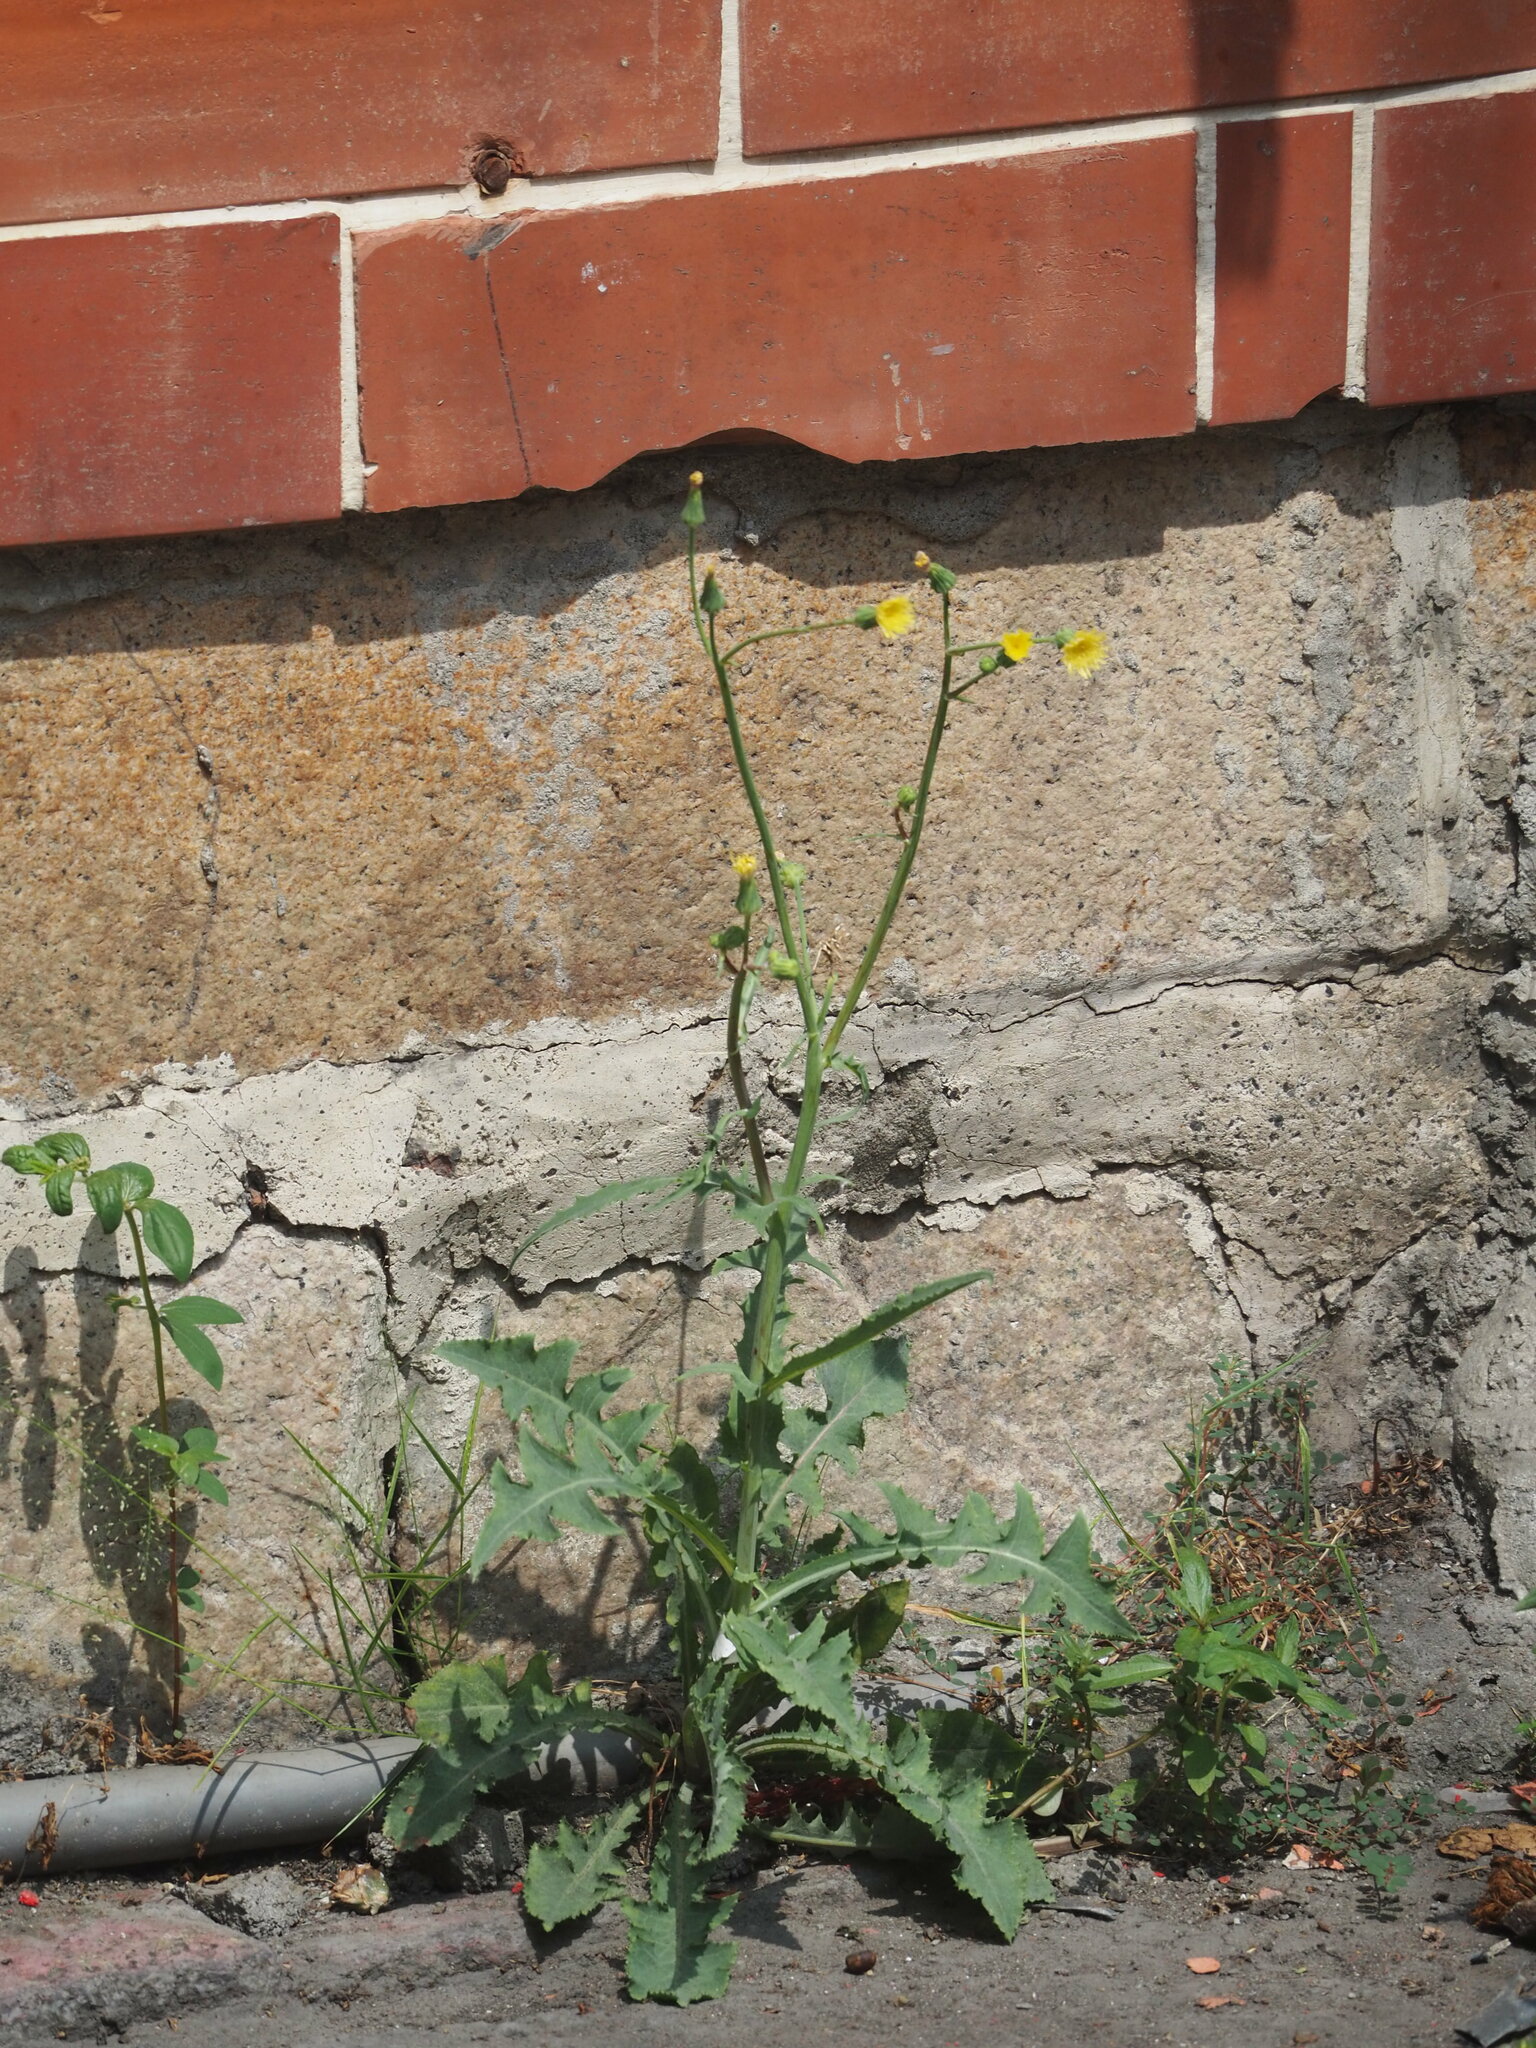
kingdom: Plantae
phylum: Tracheophyta
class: Magnoliopsida
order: Asterales
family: Asteraceae
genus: Sonchus
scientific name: Sonchus oleraceus
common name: Common sowthistle
